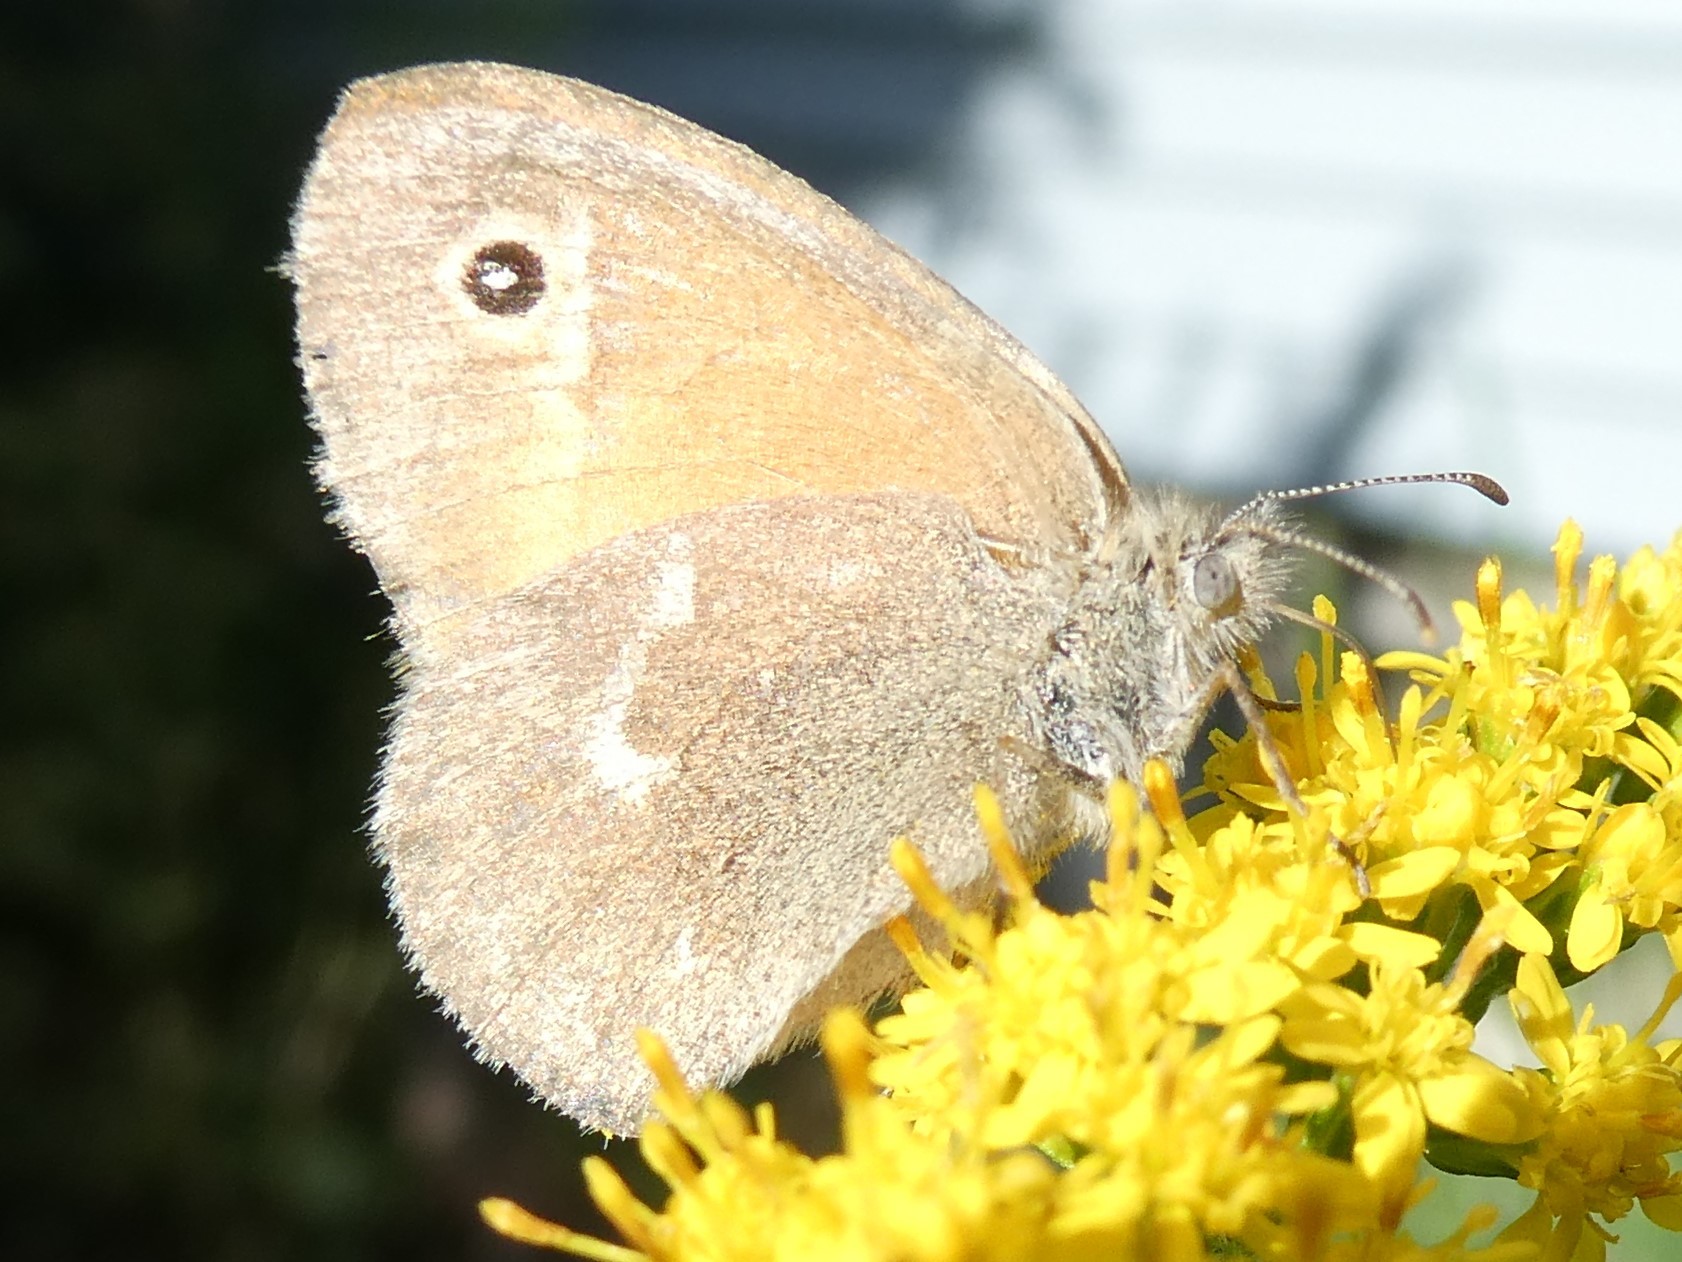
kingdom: Animalia
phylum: Arthropoda
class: Insecta
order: Lepidoptera
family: Nymphalidae
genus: Coenonympha
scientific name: Coenonympha california
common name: Common ringlet
